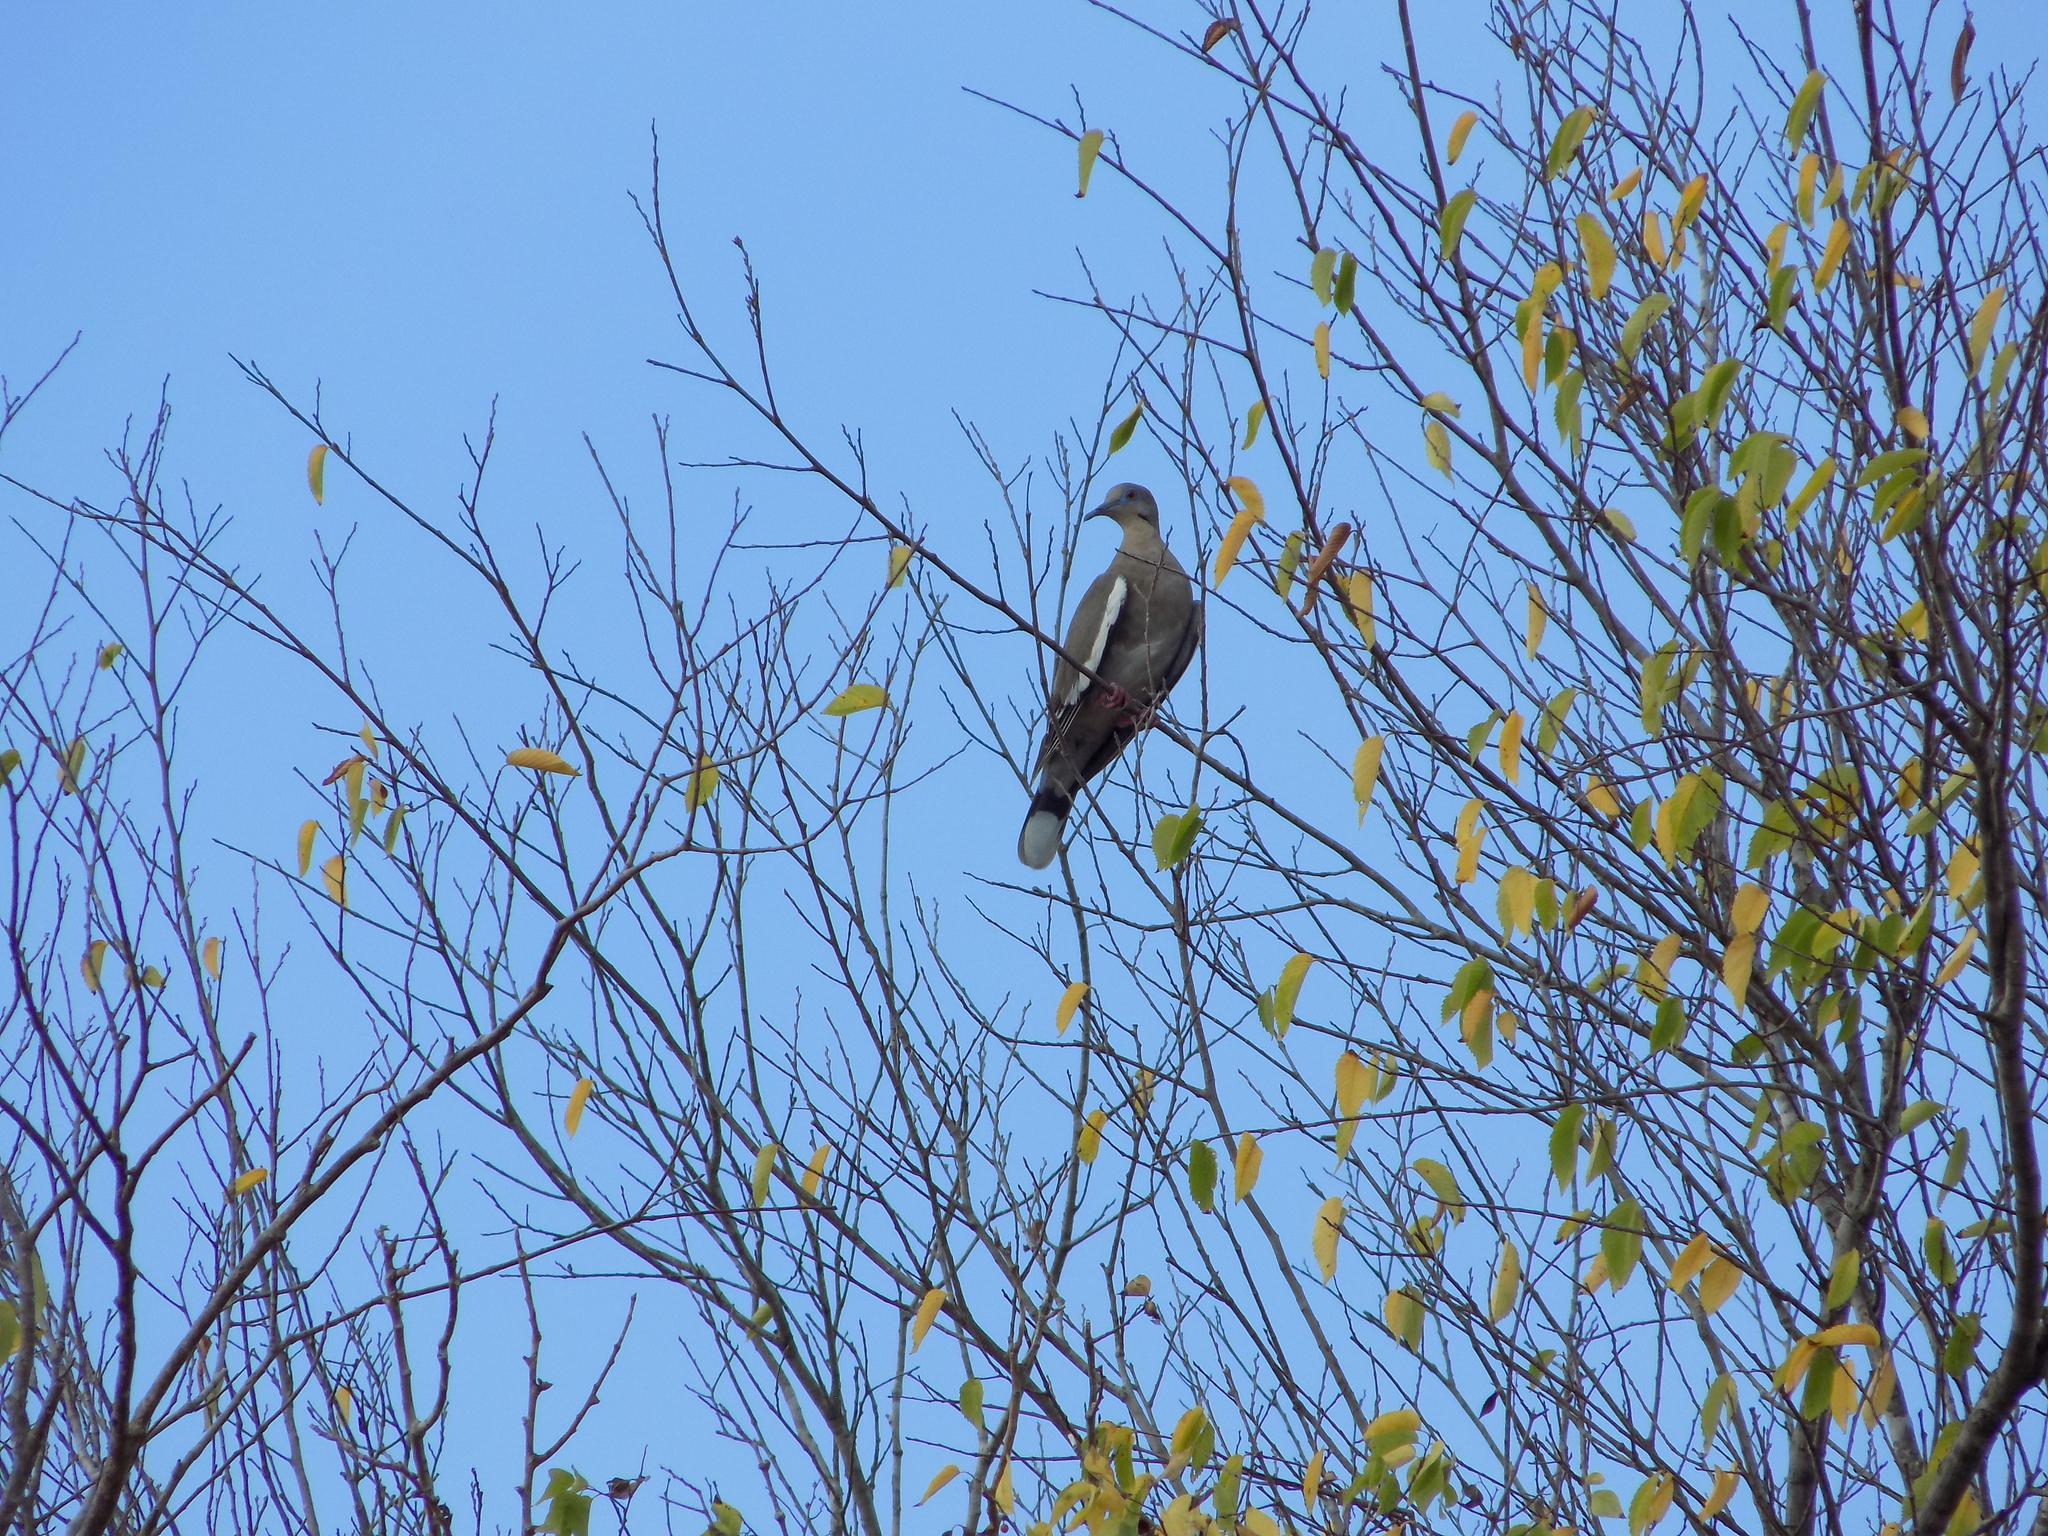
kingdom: Animalia
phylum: Chordata
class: Aves
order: Columbiformes
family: Columbidae
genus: Zenaida
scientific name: Zenaida asiatica
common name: White-winged dove
